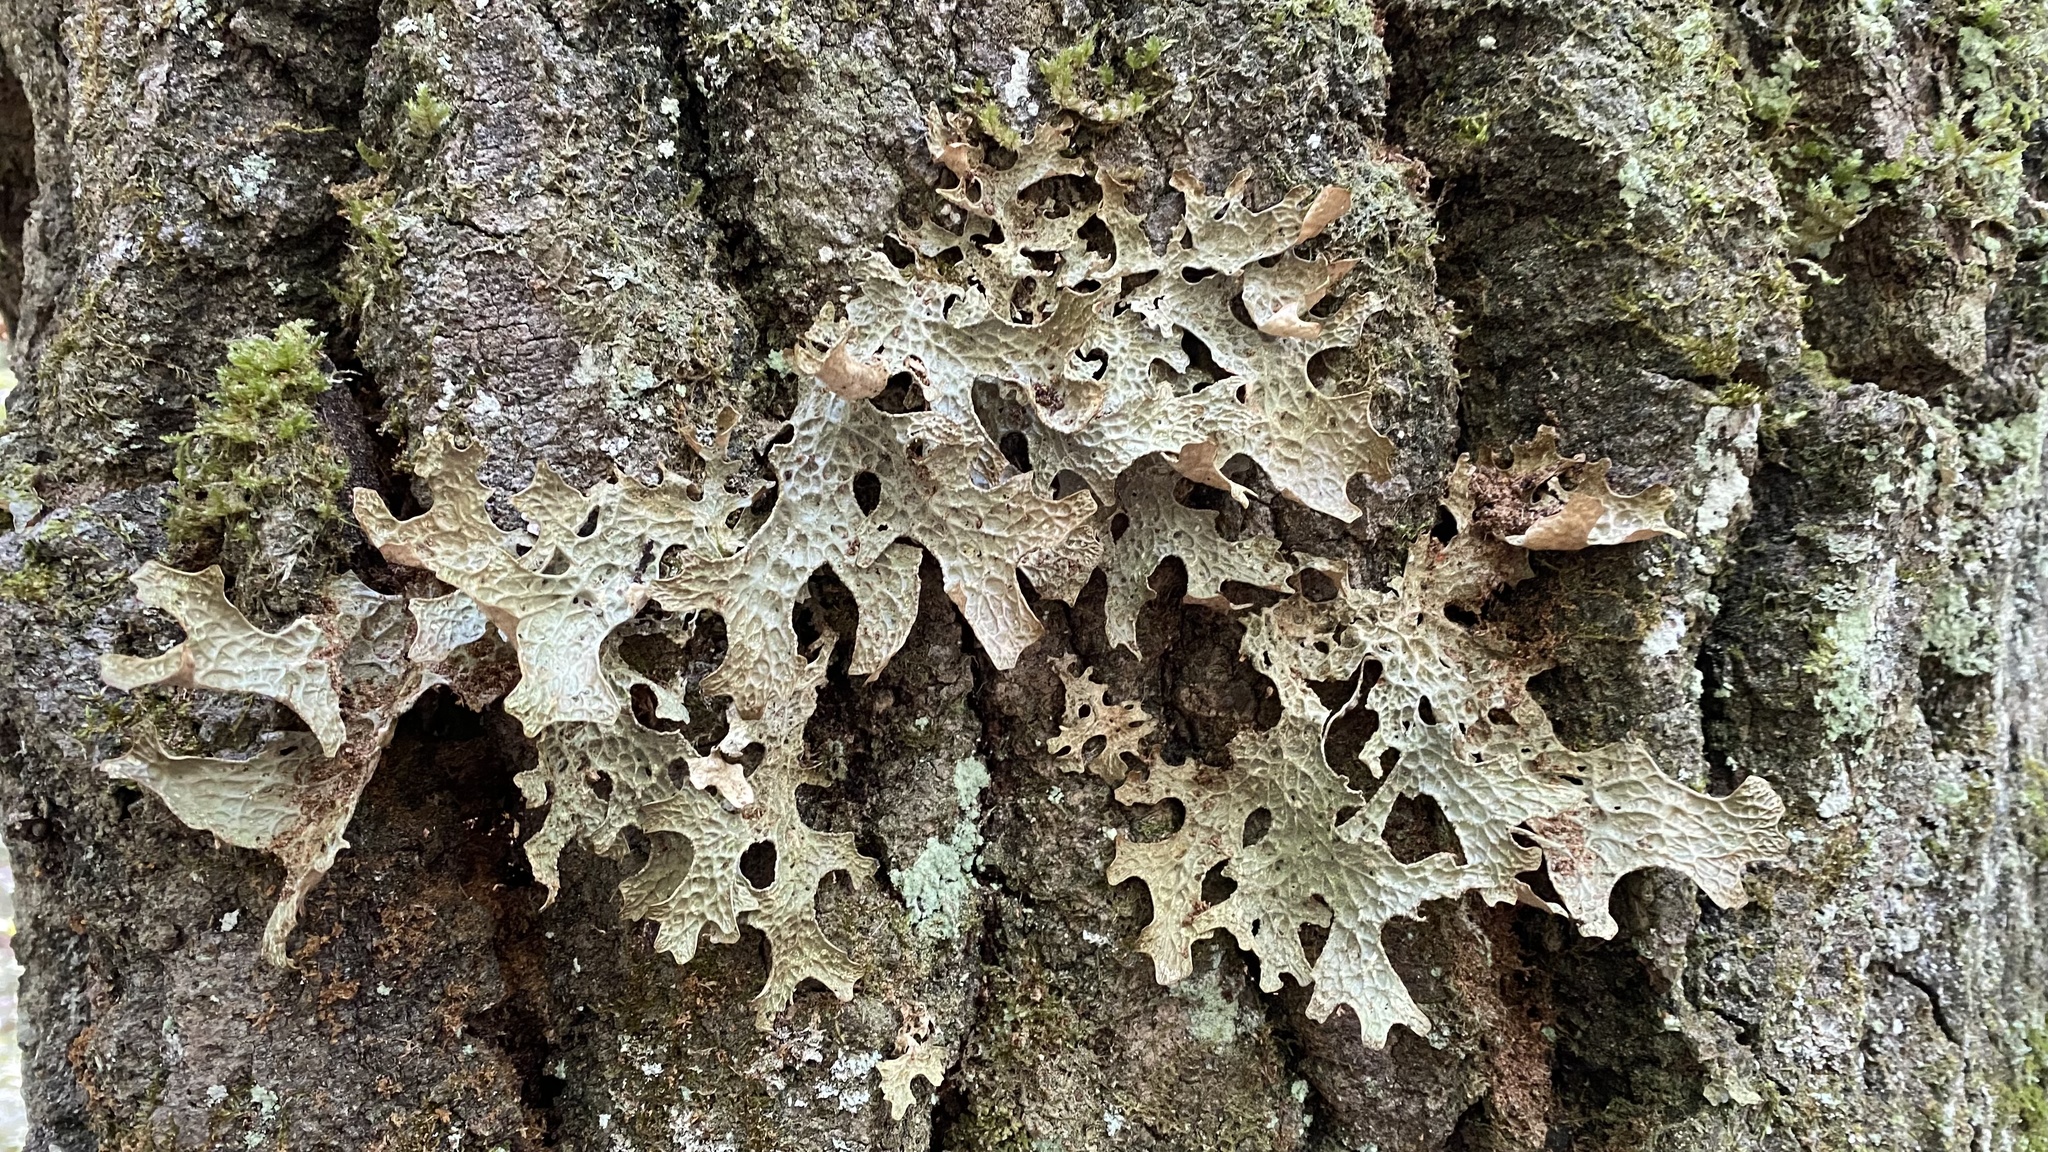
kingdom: Fungi
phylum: Ascomycota
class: Lecanoromycetes
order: Peltigerales
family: Lobariaceae
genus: Lobaria
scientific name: Lobaria pulmonaria
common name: Lungwort
